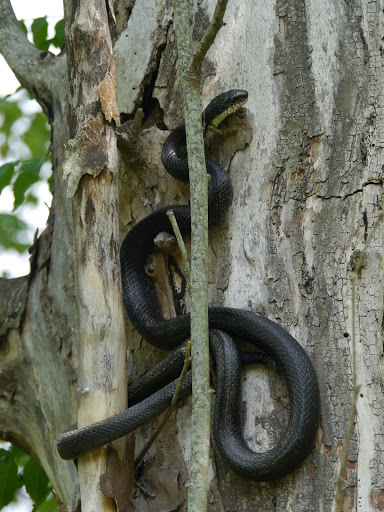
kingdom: Animalia
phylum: Chordata
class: Squamata
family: Colubridae
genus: Pantherophis
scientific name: Pantherophis alleghaniensis
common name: Eastern rat snake
